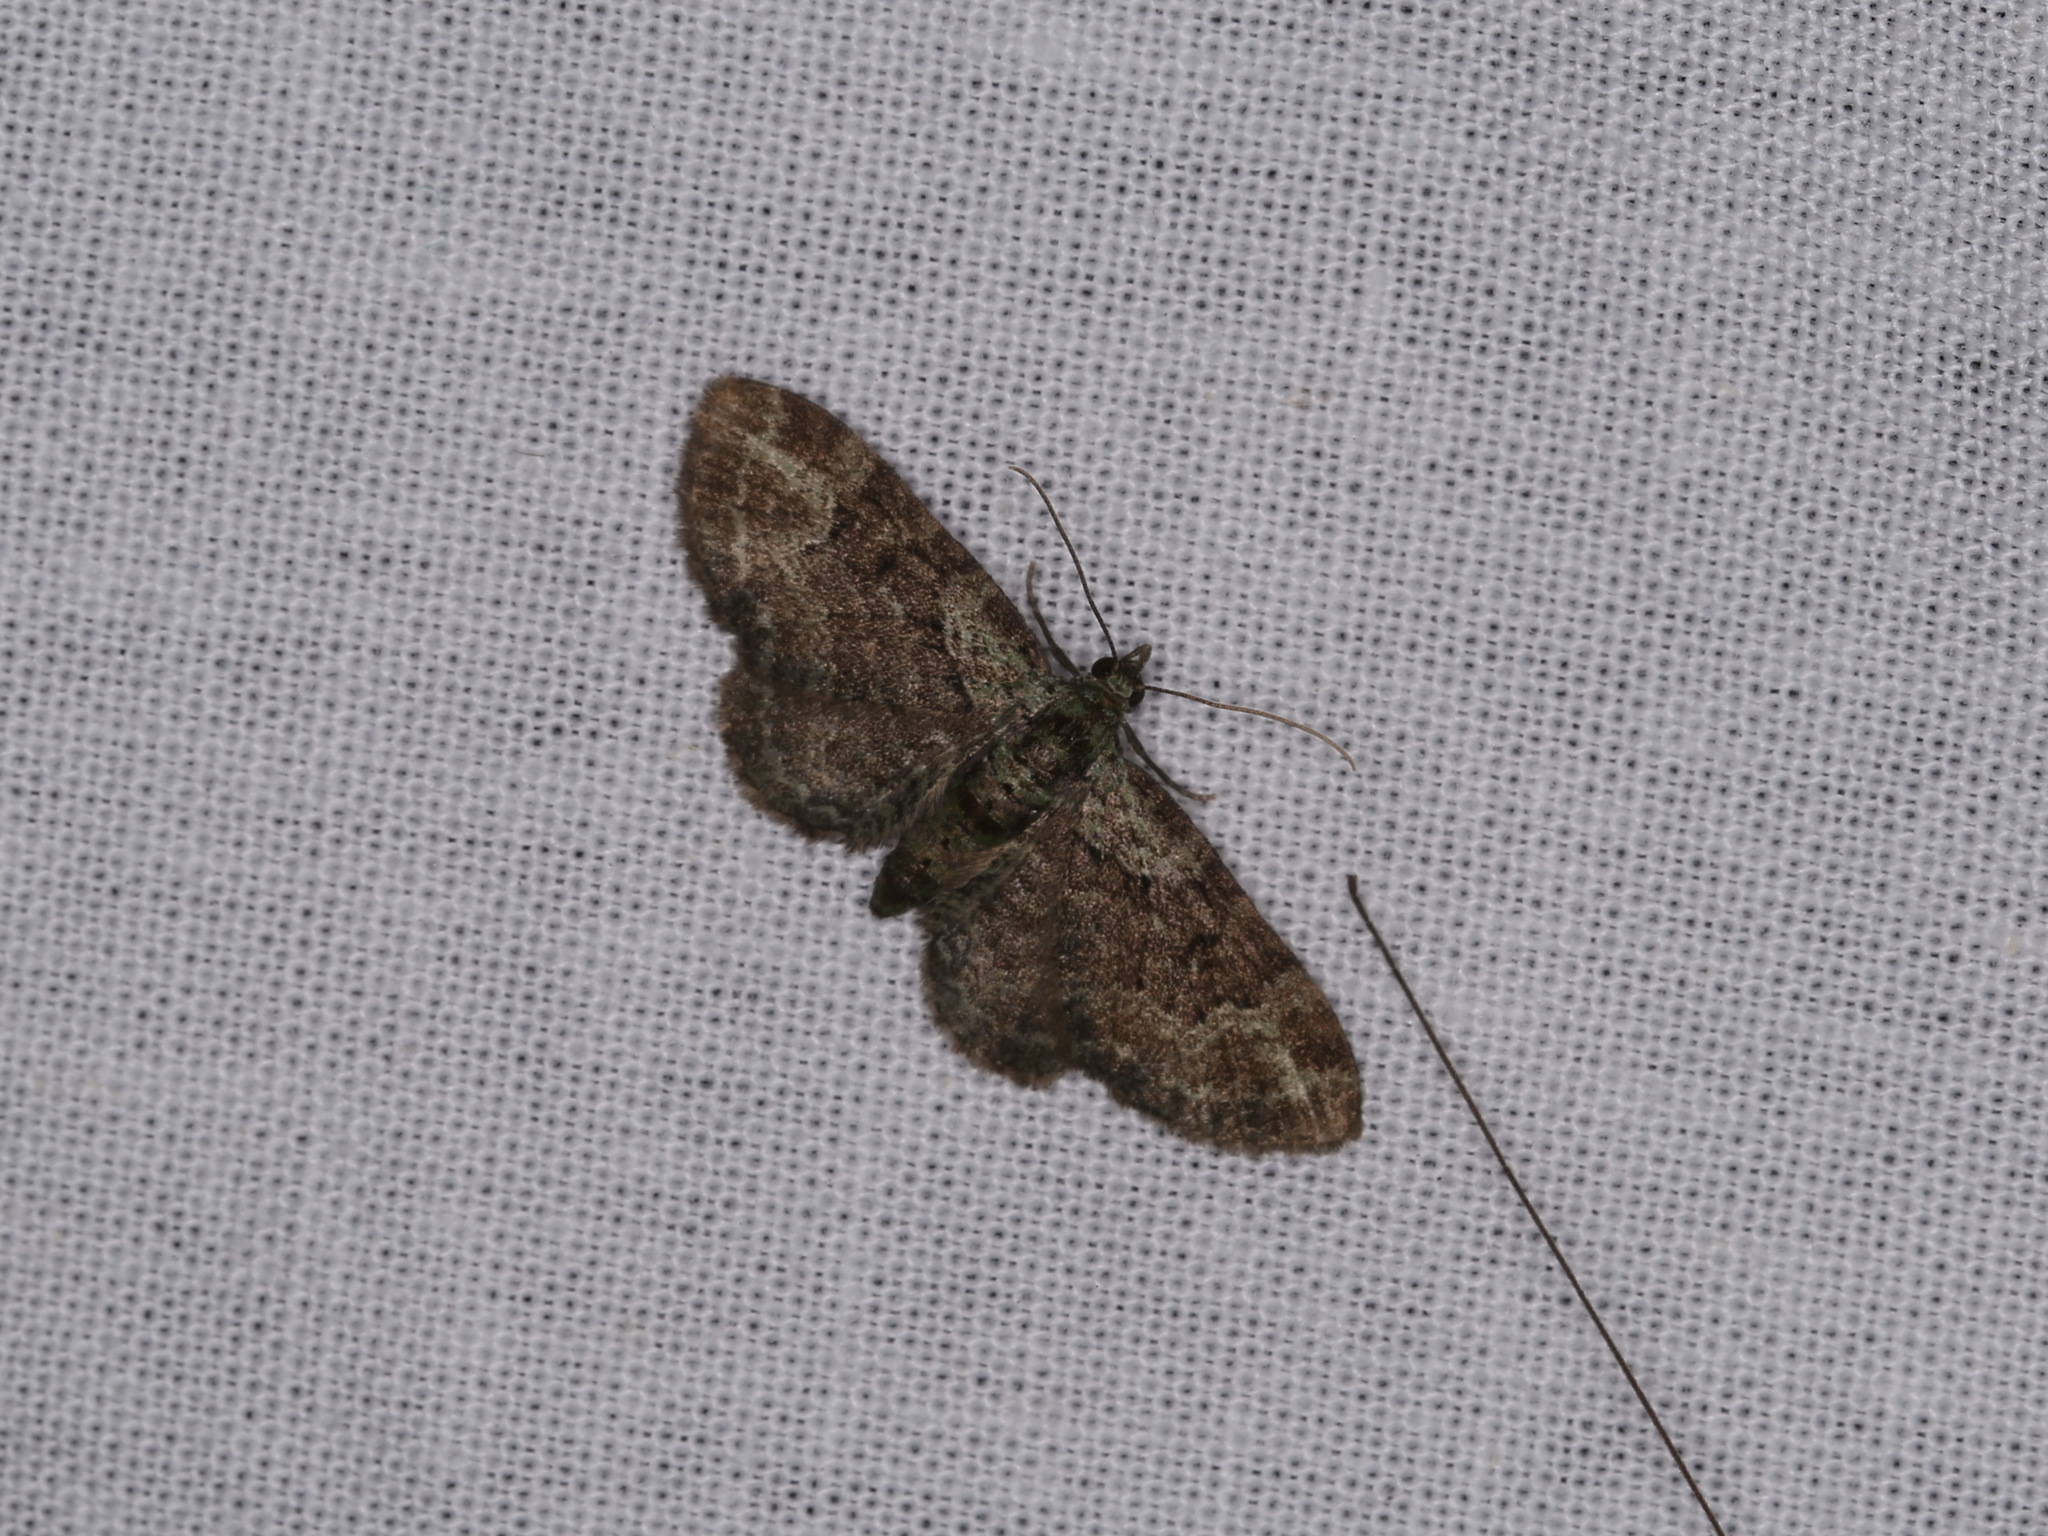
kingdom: Animalia
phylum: Arthropoda
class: Insecta
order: Lepidoptera
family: Geometridae
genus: Pasiphila
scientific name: Pasiphila rectangulata
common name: Green pug
